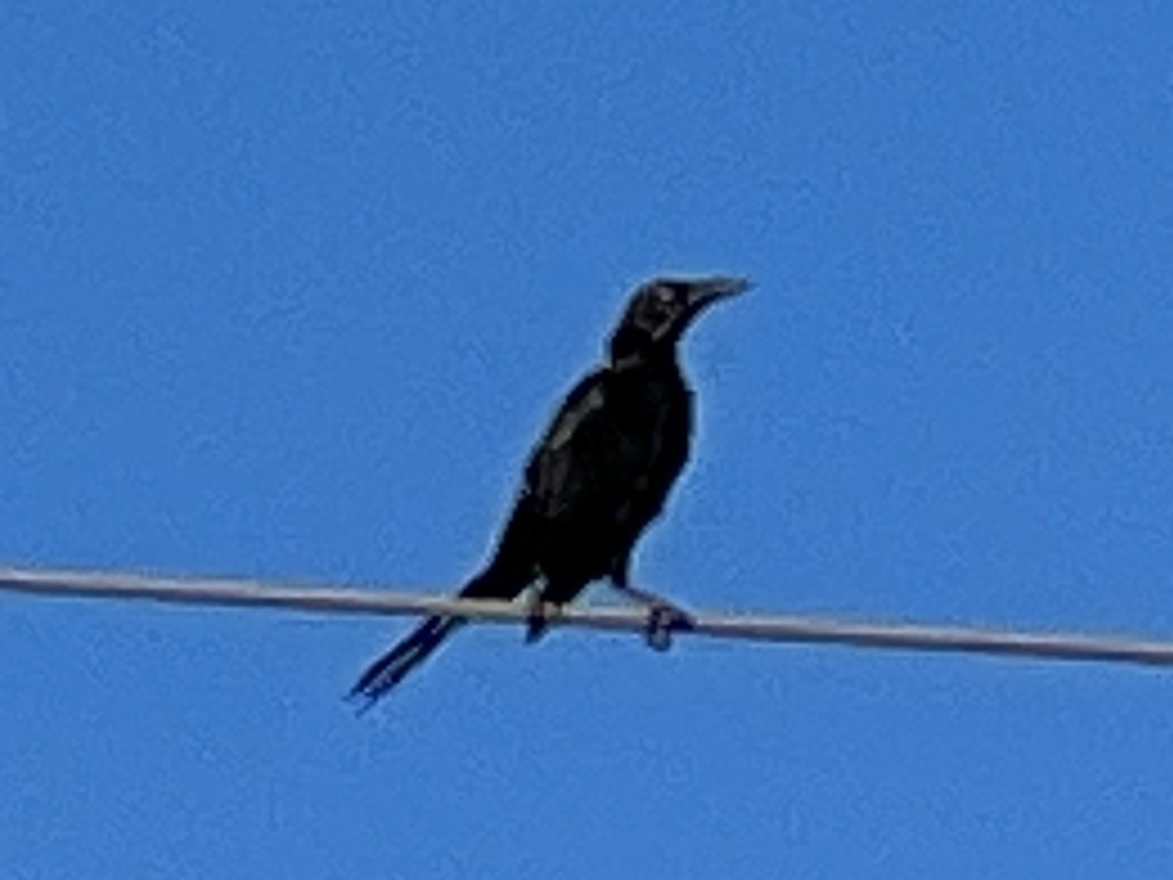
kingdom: Animalia
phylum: Chordata
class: Aves
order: Passeriformes
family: Icteridae
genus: Quiscalus
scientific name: Quiscalus mexicanus
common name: Great-tailed grackle
